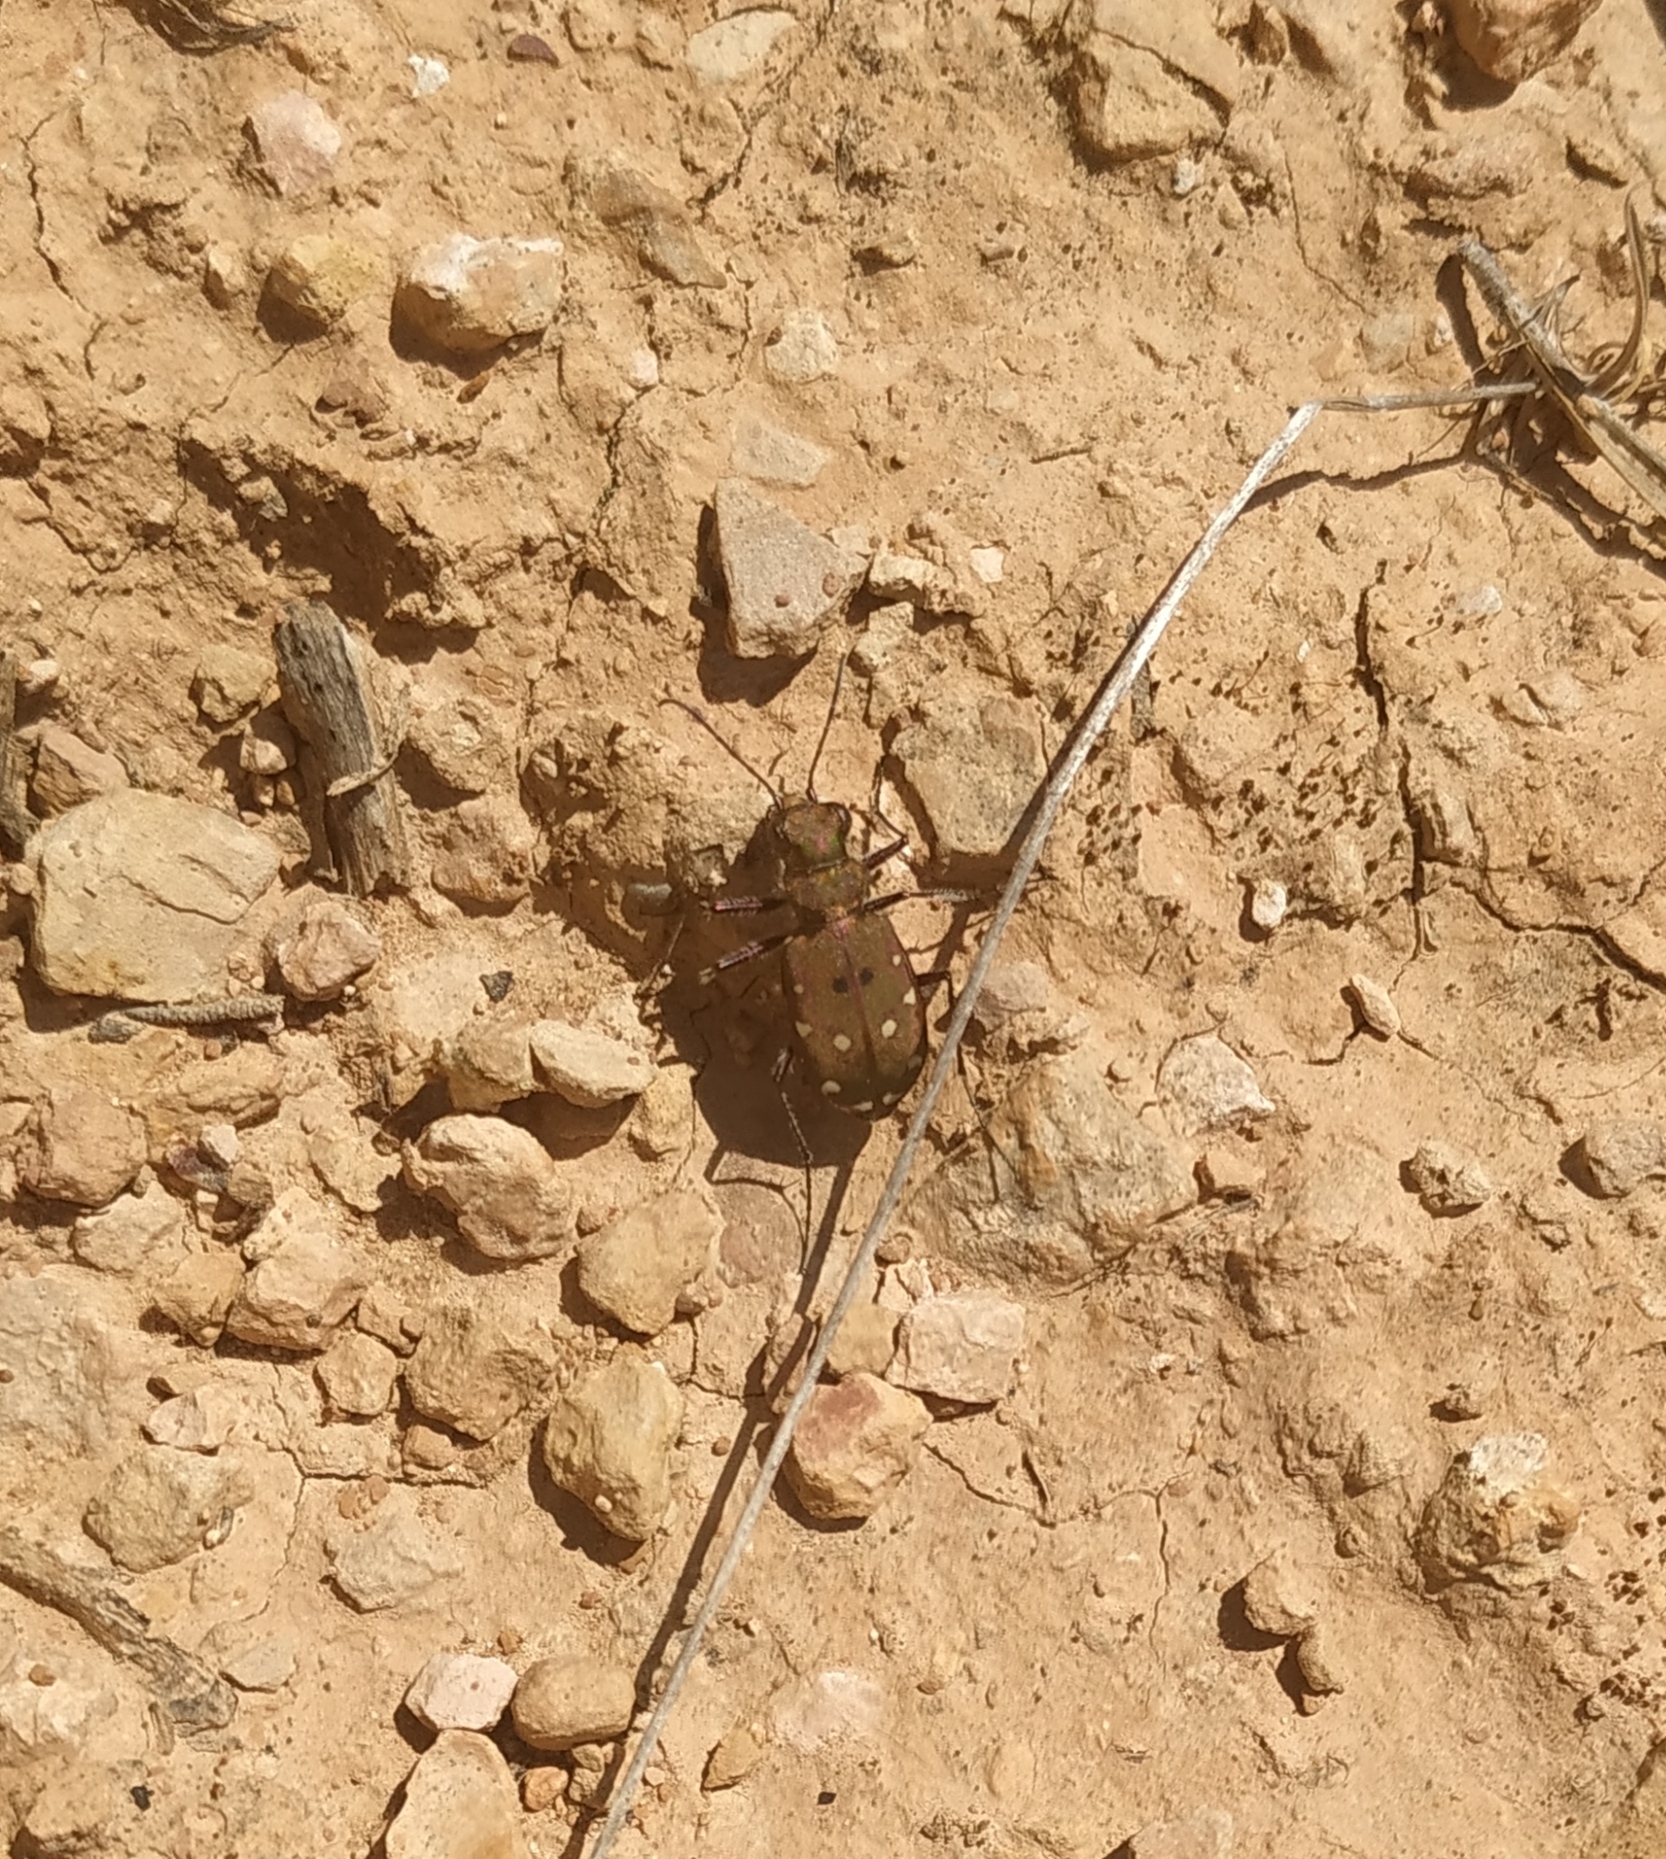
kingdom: Animalia
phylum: Arthropoda
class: Insecta
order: Coleoptera
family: Carabidae
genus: Cicindela
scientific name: Cicindela campestris
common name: Common tiger beetle
